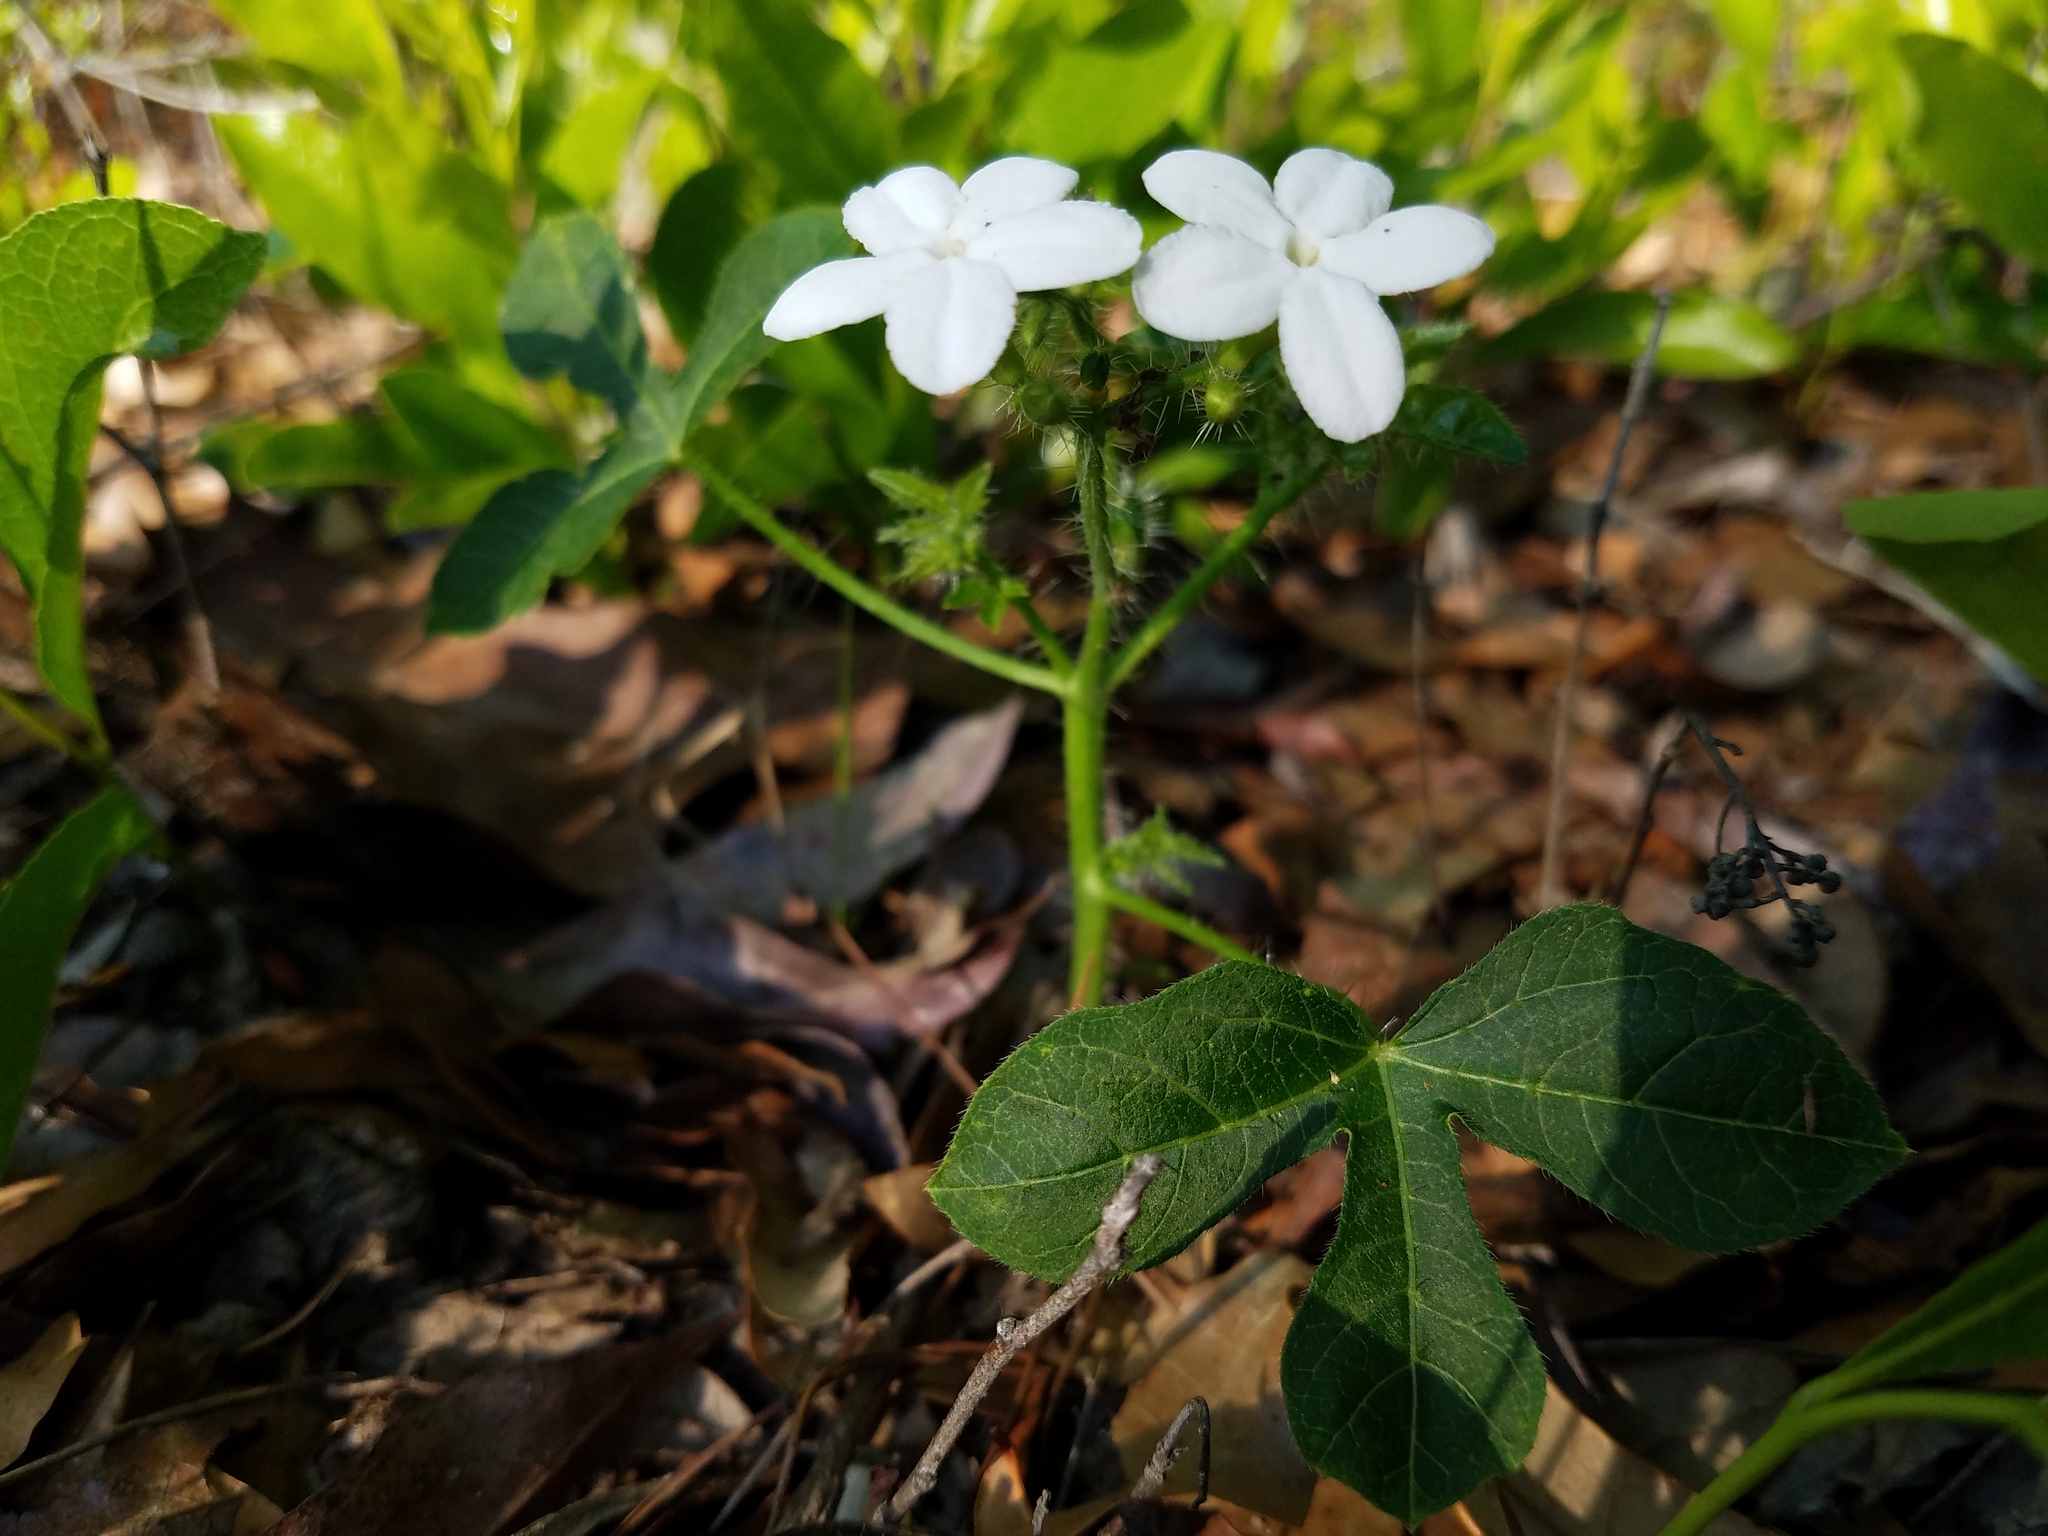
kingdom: Plantae
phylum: Tracheophyta
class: Magnoliopsida
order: Malpighiales
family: Euphorbiaceae
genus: Cnidoscolus
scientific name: Cnidoscolus stimulosus
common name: Bull-nettle
